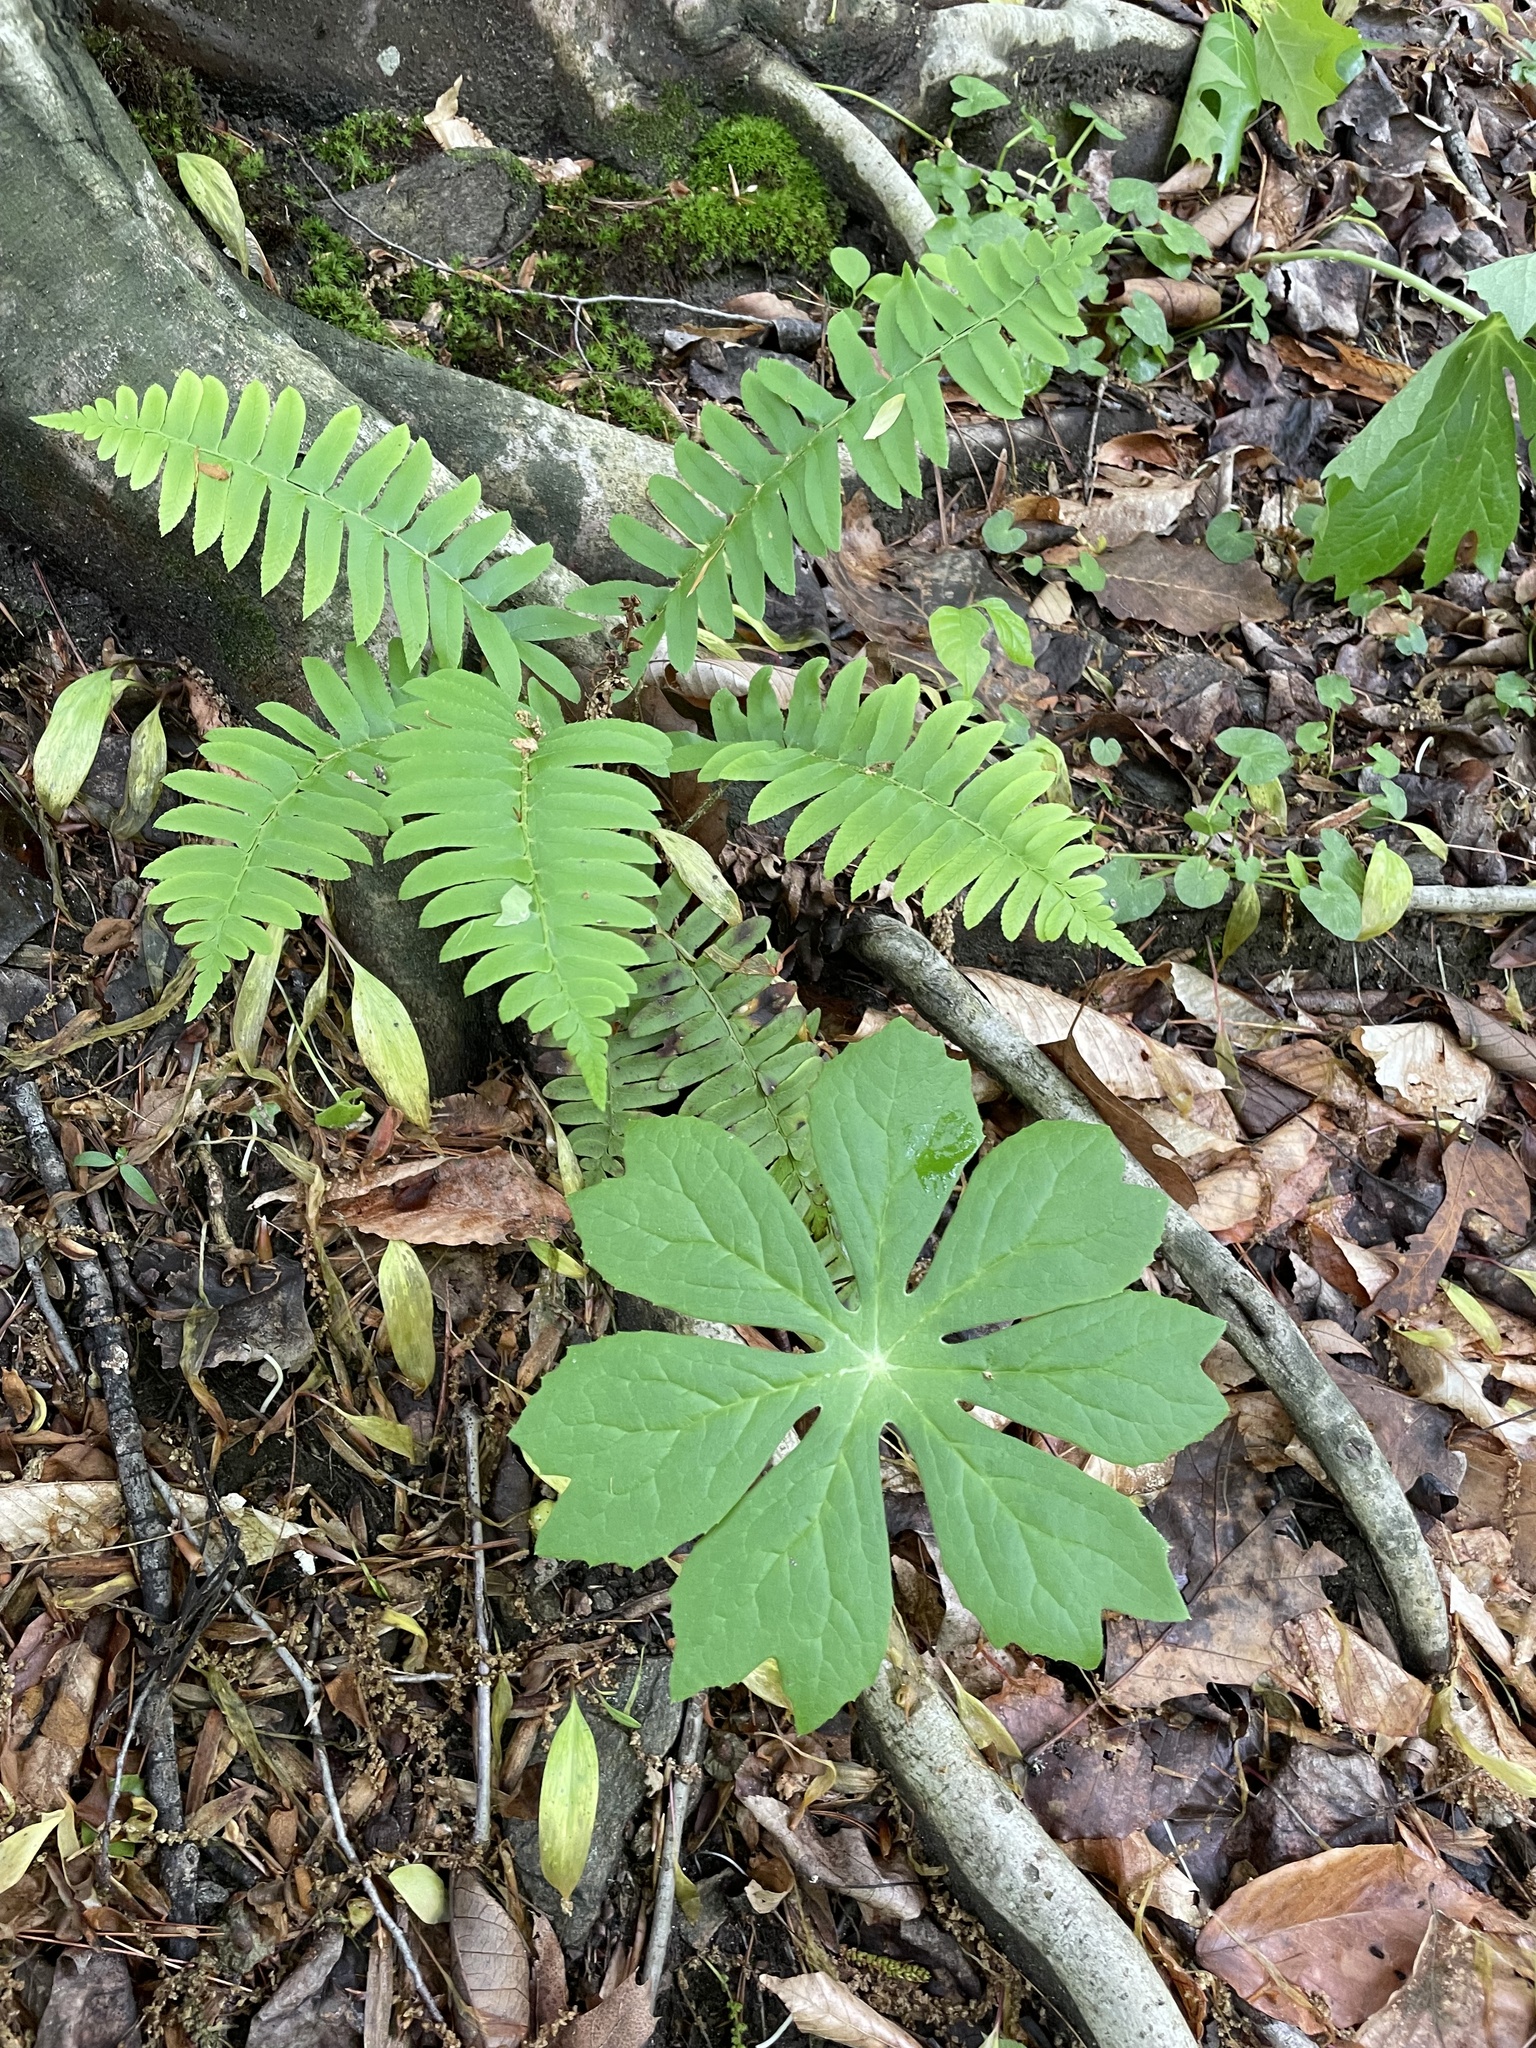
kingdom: Plantae
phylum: Tracheophyta
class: Magnoliopsida
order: Ranunculales
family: Berberidaceae
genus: Podophyllum
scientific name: Podophyllum peltatum
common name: Wild mandrake
